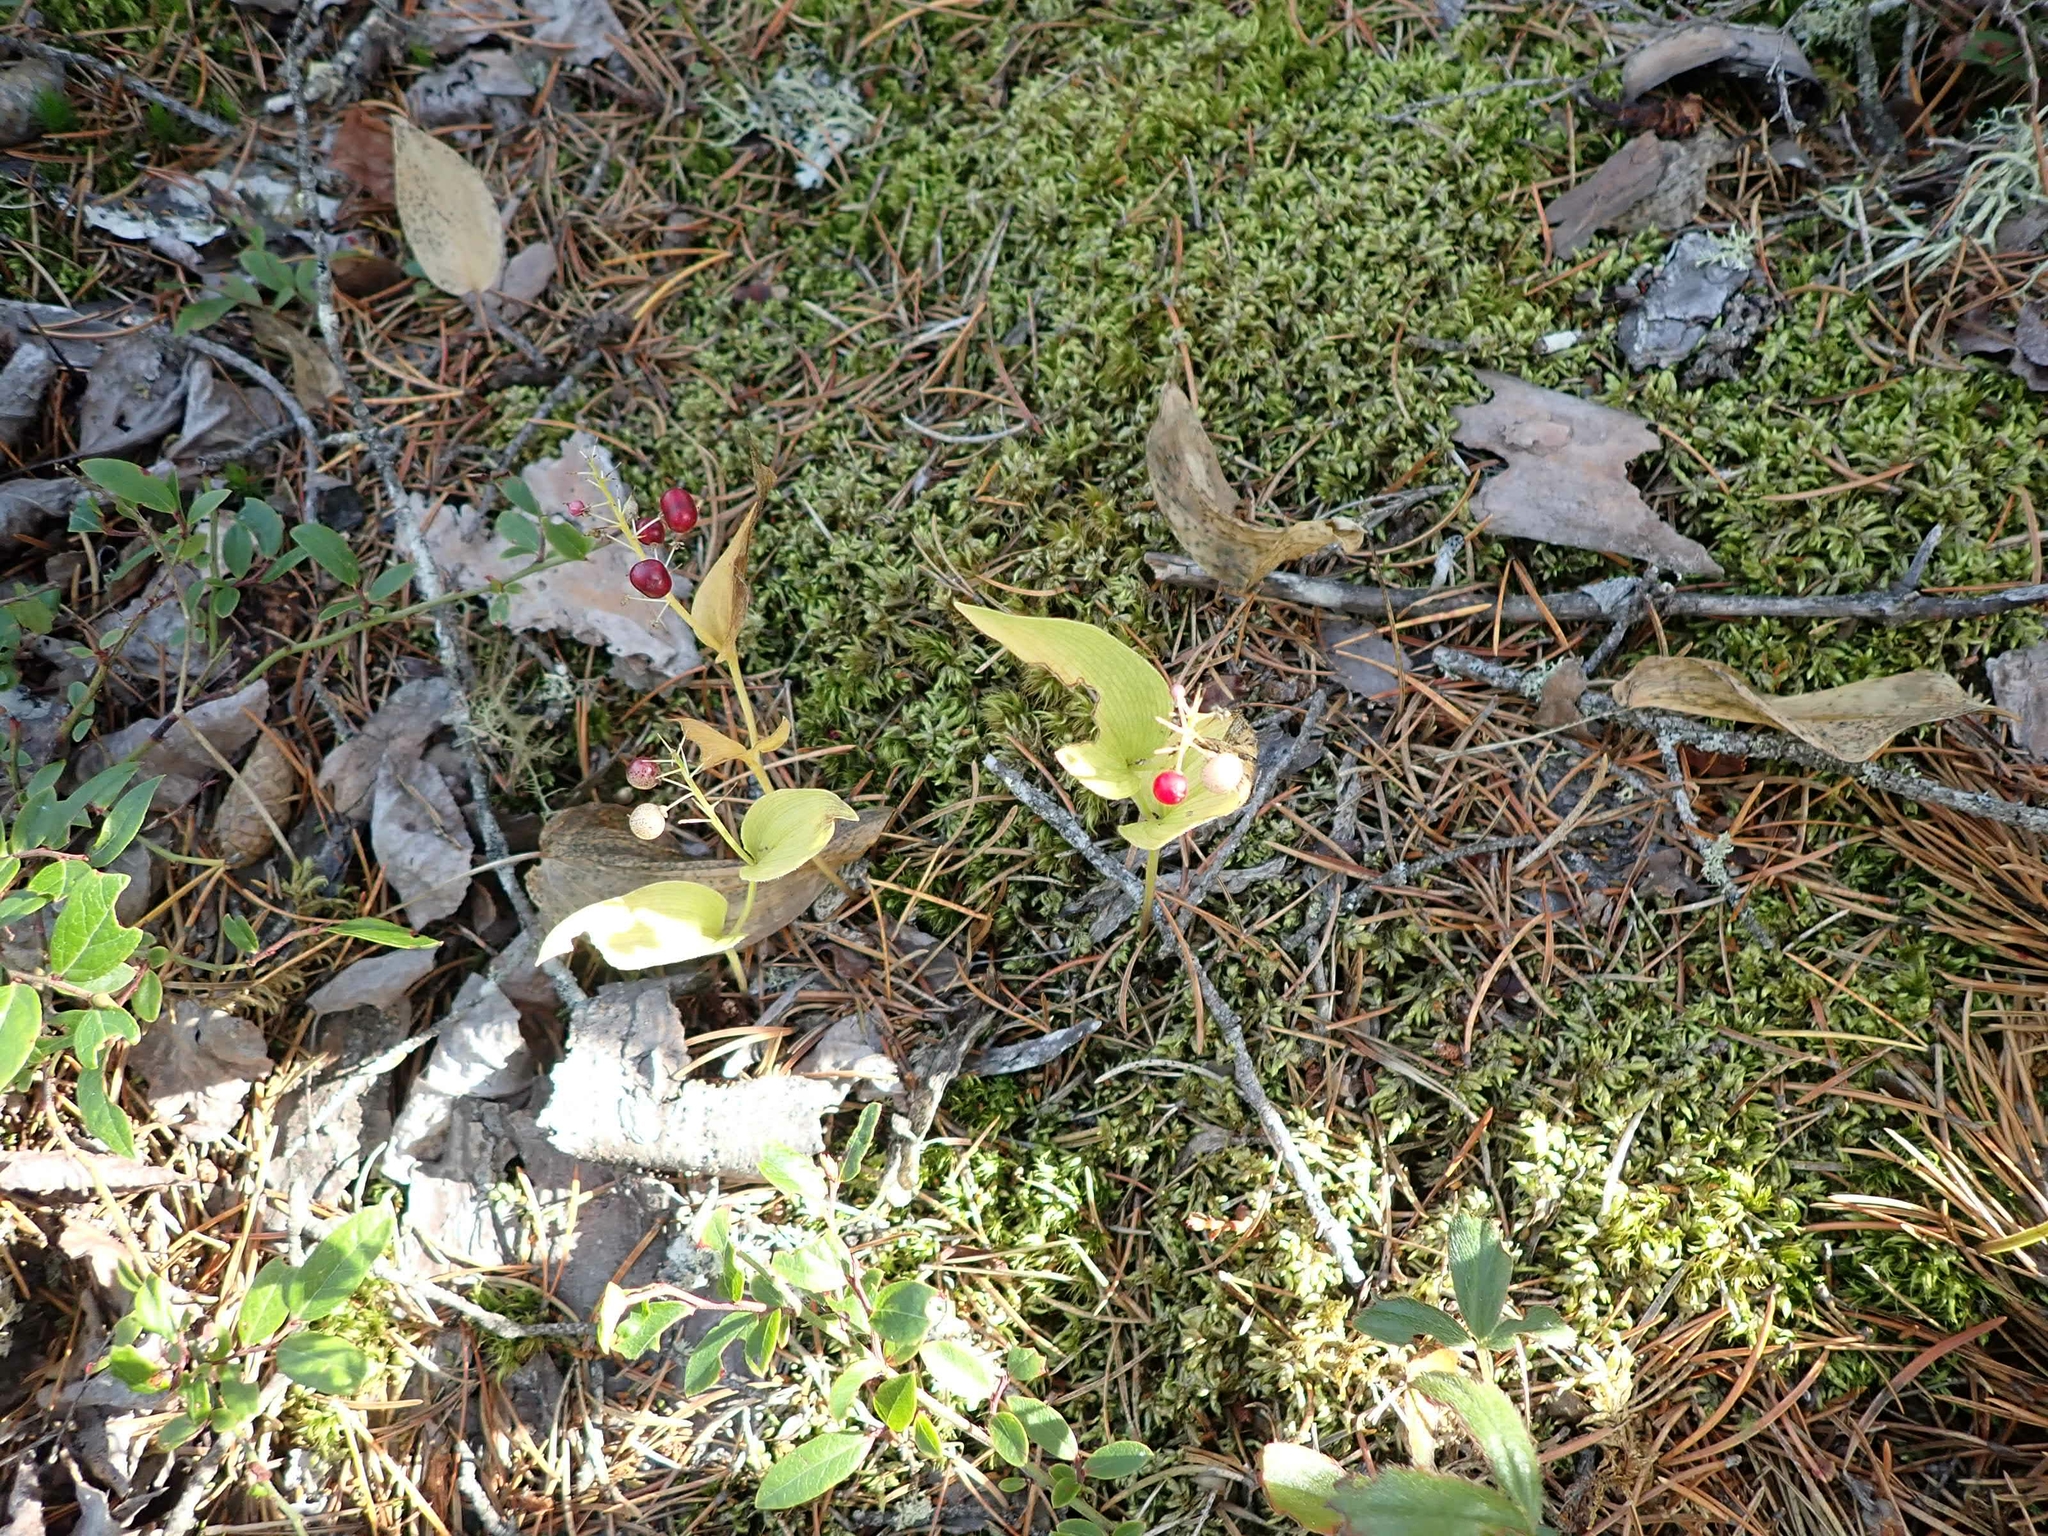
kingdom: Plantae
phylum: Tracheophyta
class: Liliopsida
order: Asparagales
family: Asparagaceae
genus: Maianthemum
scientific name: Maianthemum canadense
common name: False lily-of-the-valley
